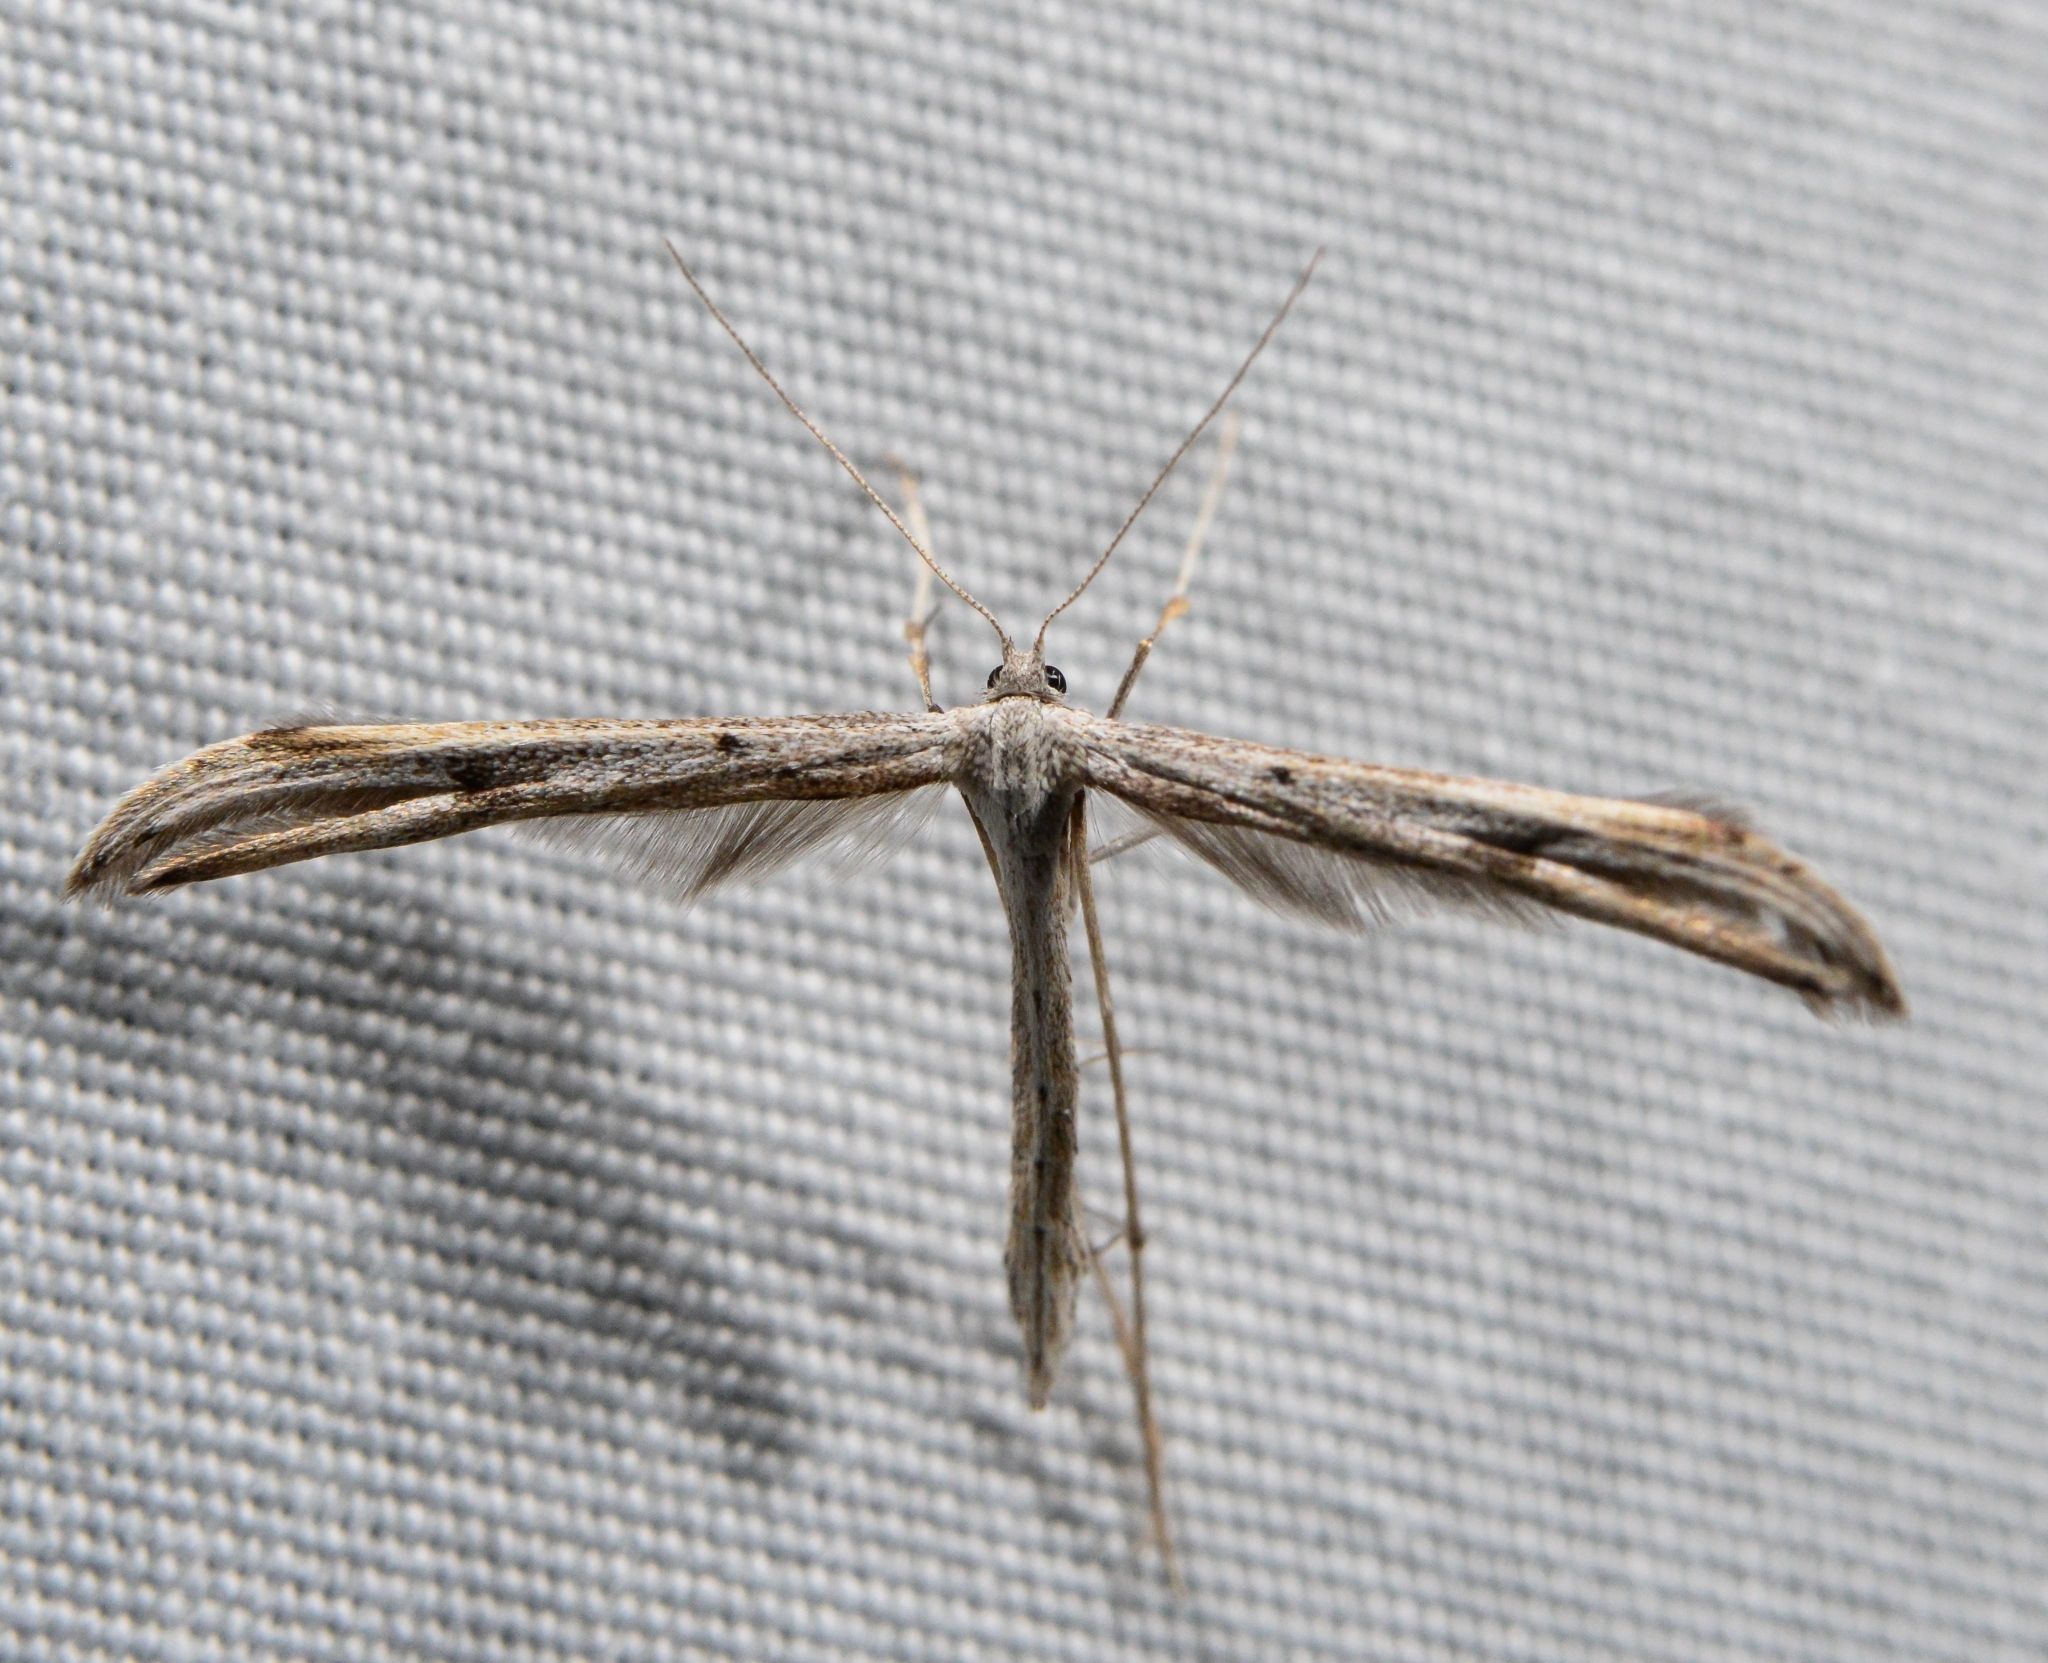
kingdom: Animalia
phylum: Arthropoda
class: Insecta
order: Lepidoptera
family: Pterophoridae
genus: Emmelina
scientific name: Emmelina monodactyla
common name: Common plume
